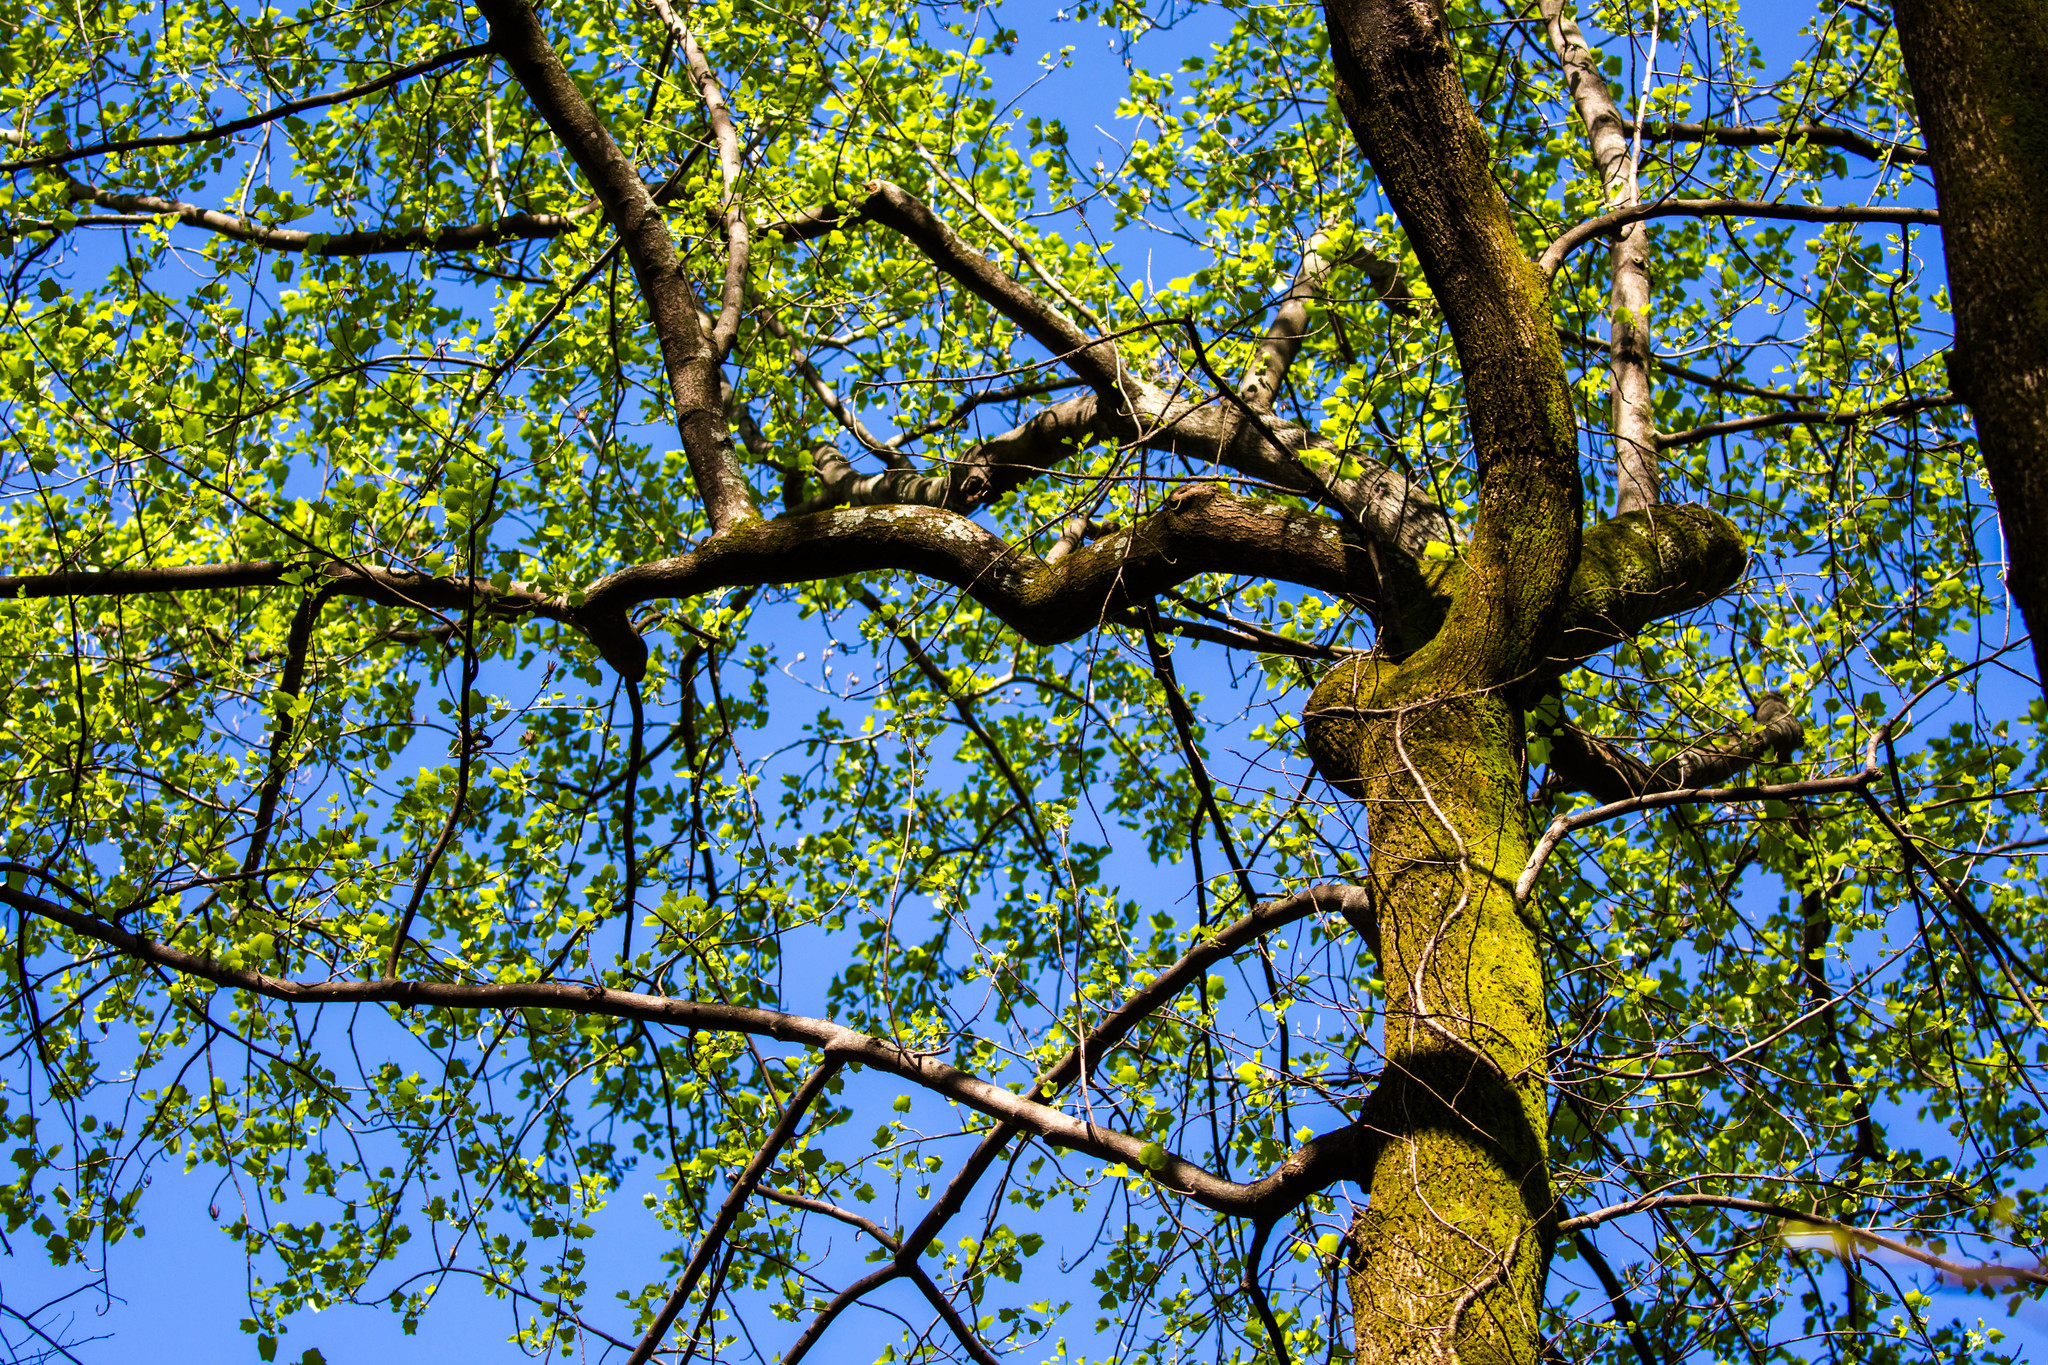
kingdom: Plantae
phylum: Tracheophyta
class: Magnoliopsida
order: Magnoliales
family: Magnoliaceae
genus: Liriodendron
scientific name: Liriodendron tulipifera
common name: Tulip tree
